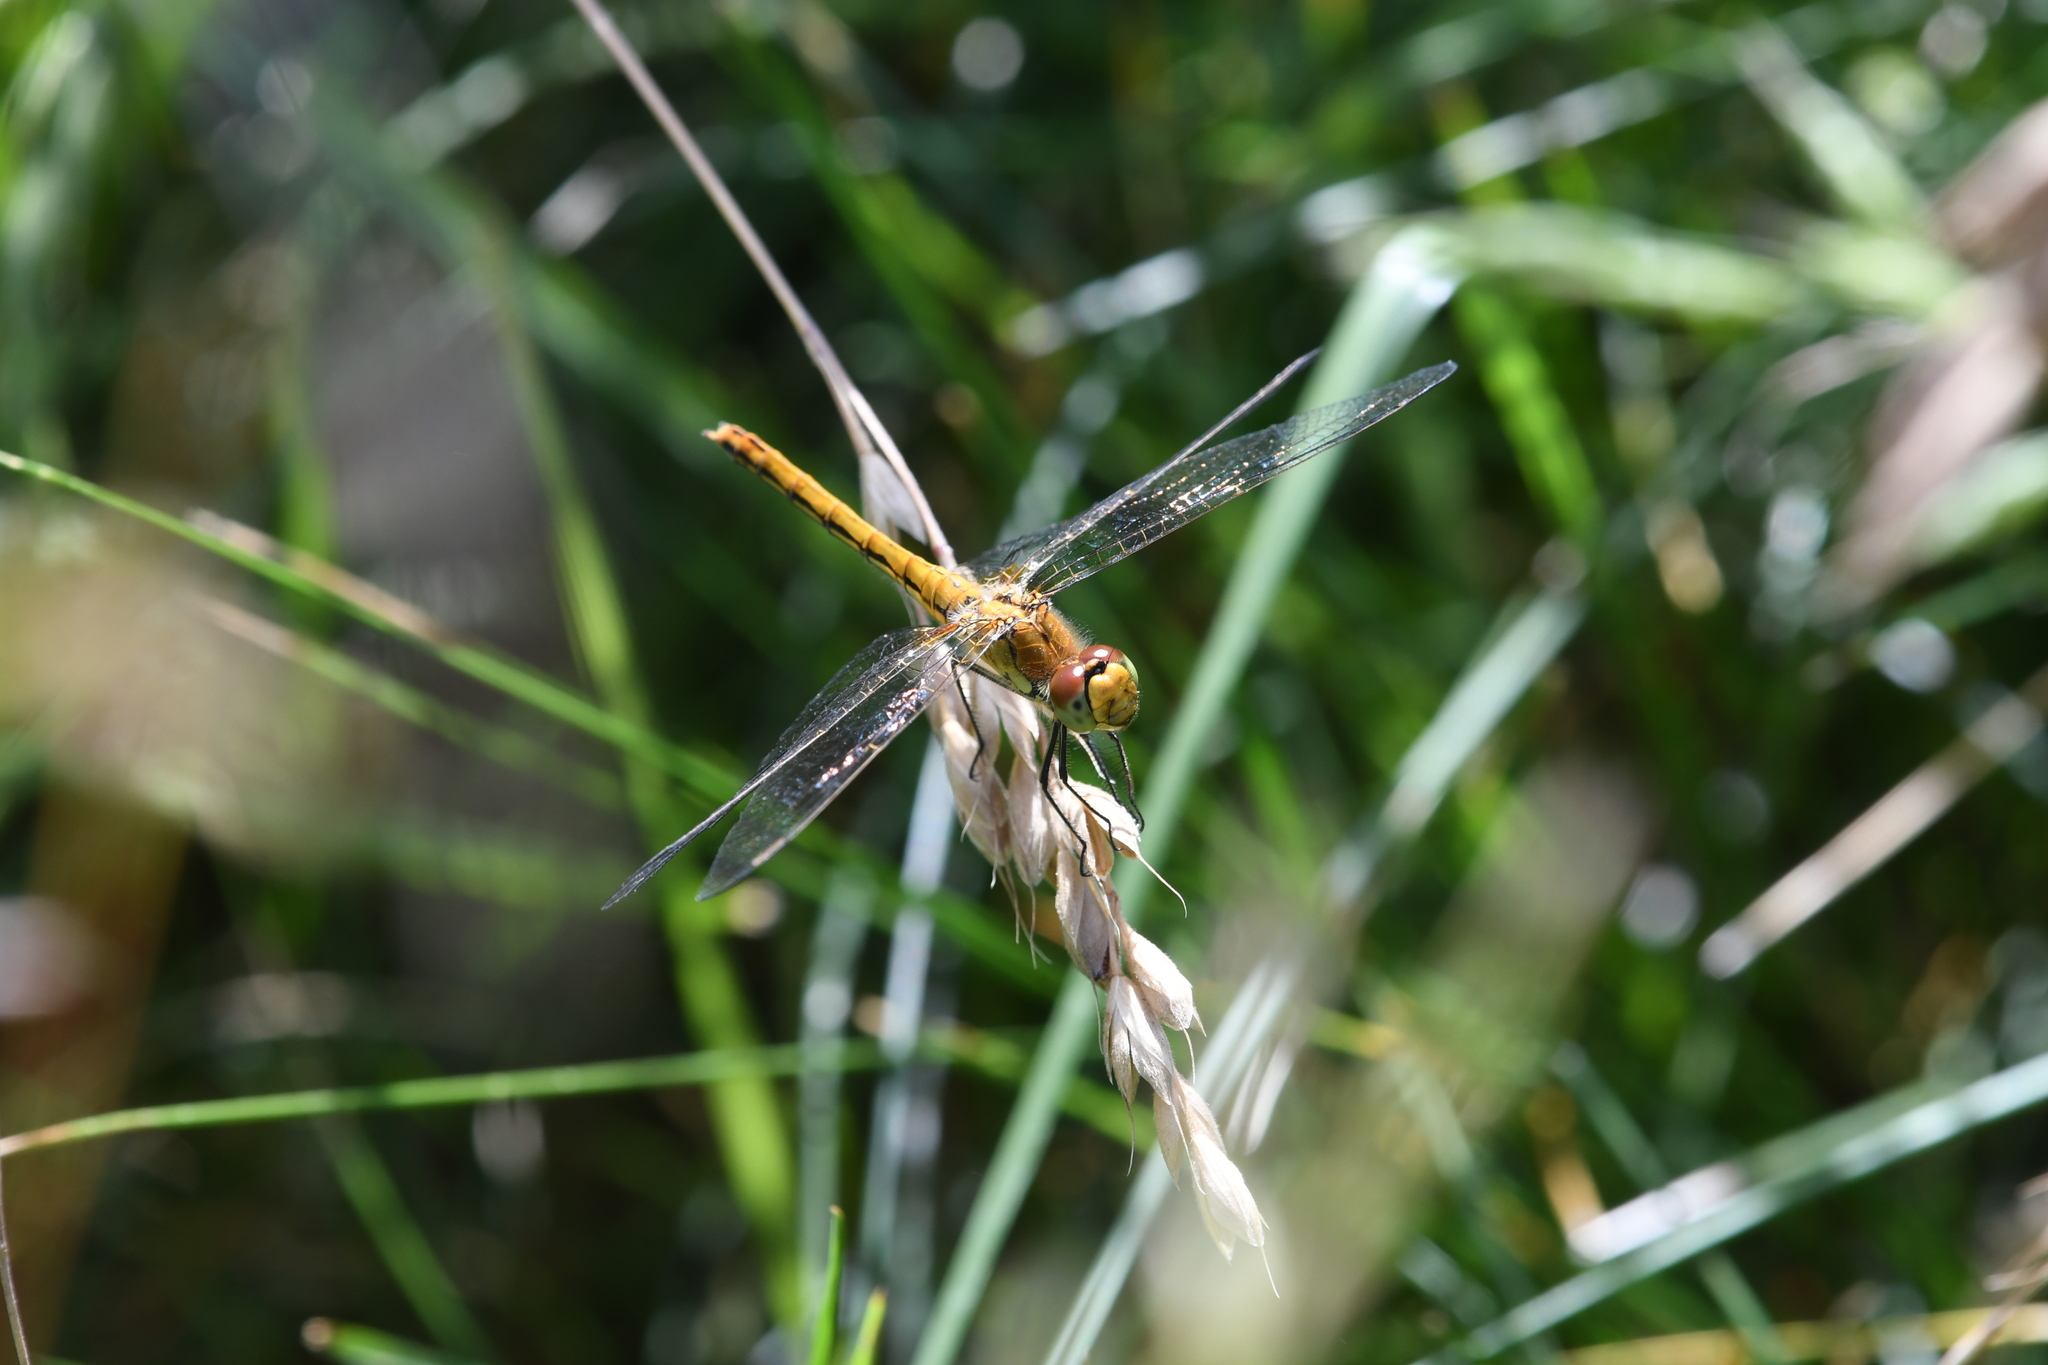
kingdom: Animalia
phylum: Arthropoda
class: Insecta
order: Odonata
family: Libellulidae
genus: Sympetrum
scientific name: Sympetrum flaveolum
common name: Yellow-winged darter
